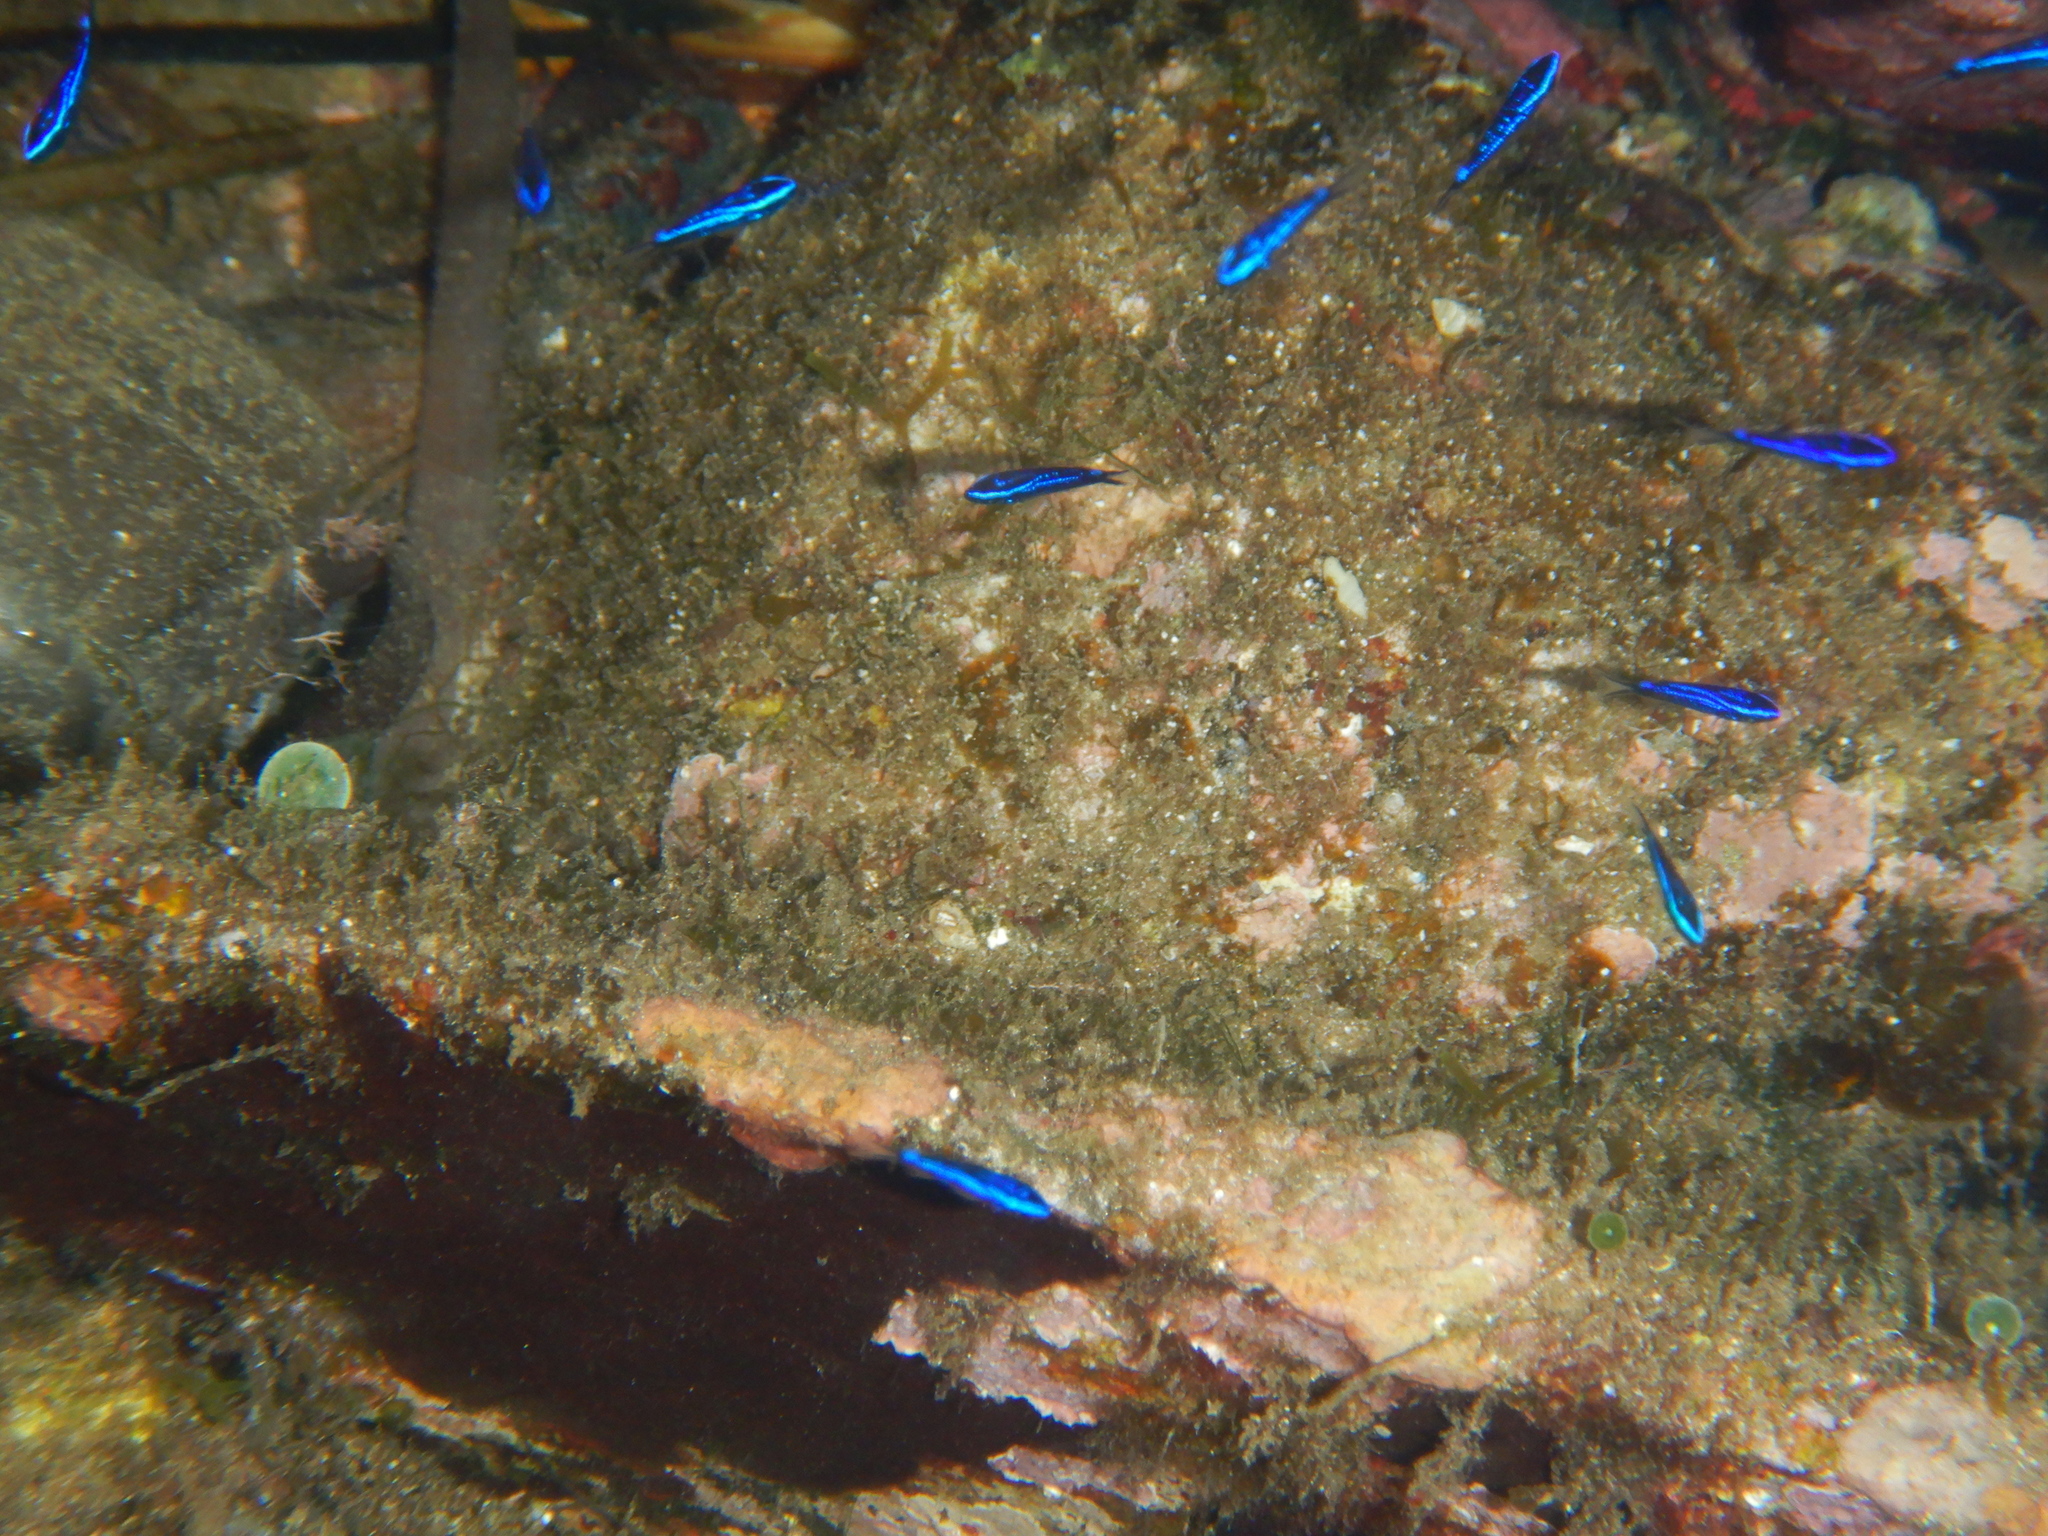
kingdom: Animalia
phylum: Chordata
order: Perciformes
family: Pomacentridae
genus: Chromis
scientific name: Chromis chromis
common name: Damselfish
